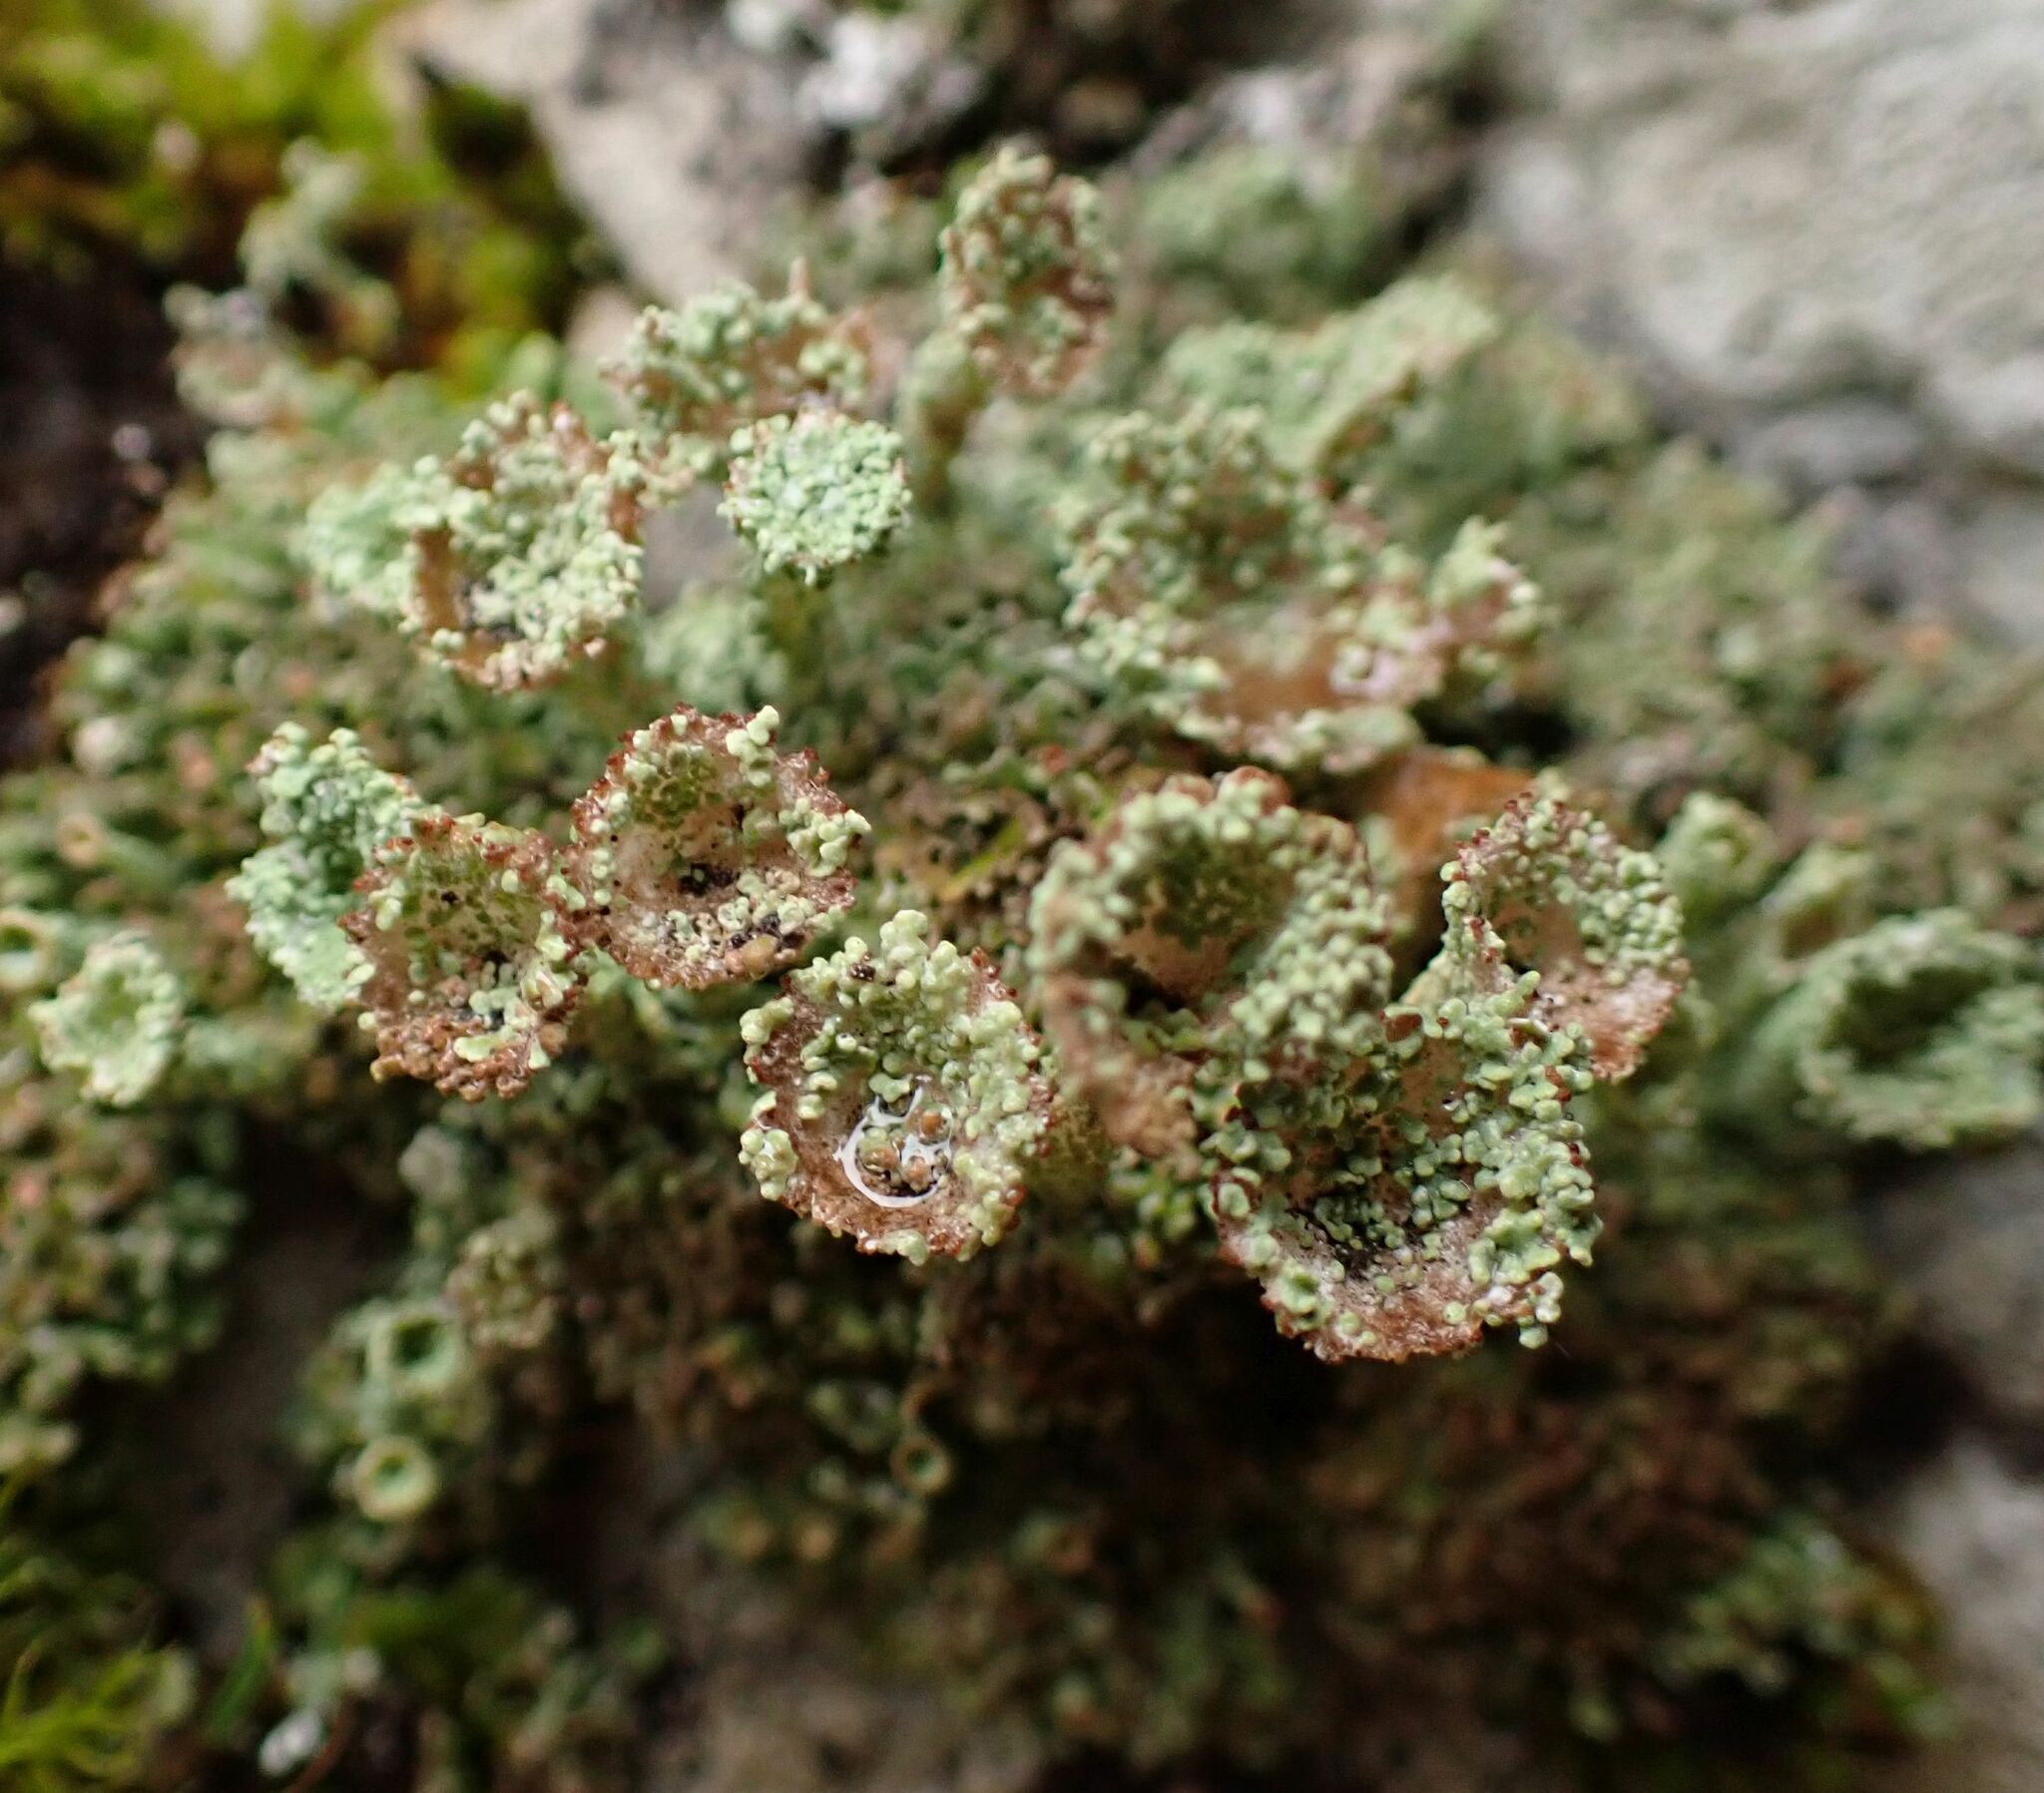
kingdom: Fungi
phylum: Ascomycota
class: Lecanoromycetes
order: Lecanorales
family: Cladoniaceae
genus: Cladonia
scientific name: Cladonia pyxidata
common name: Pebbled pixie cup
